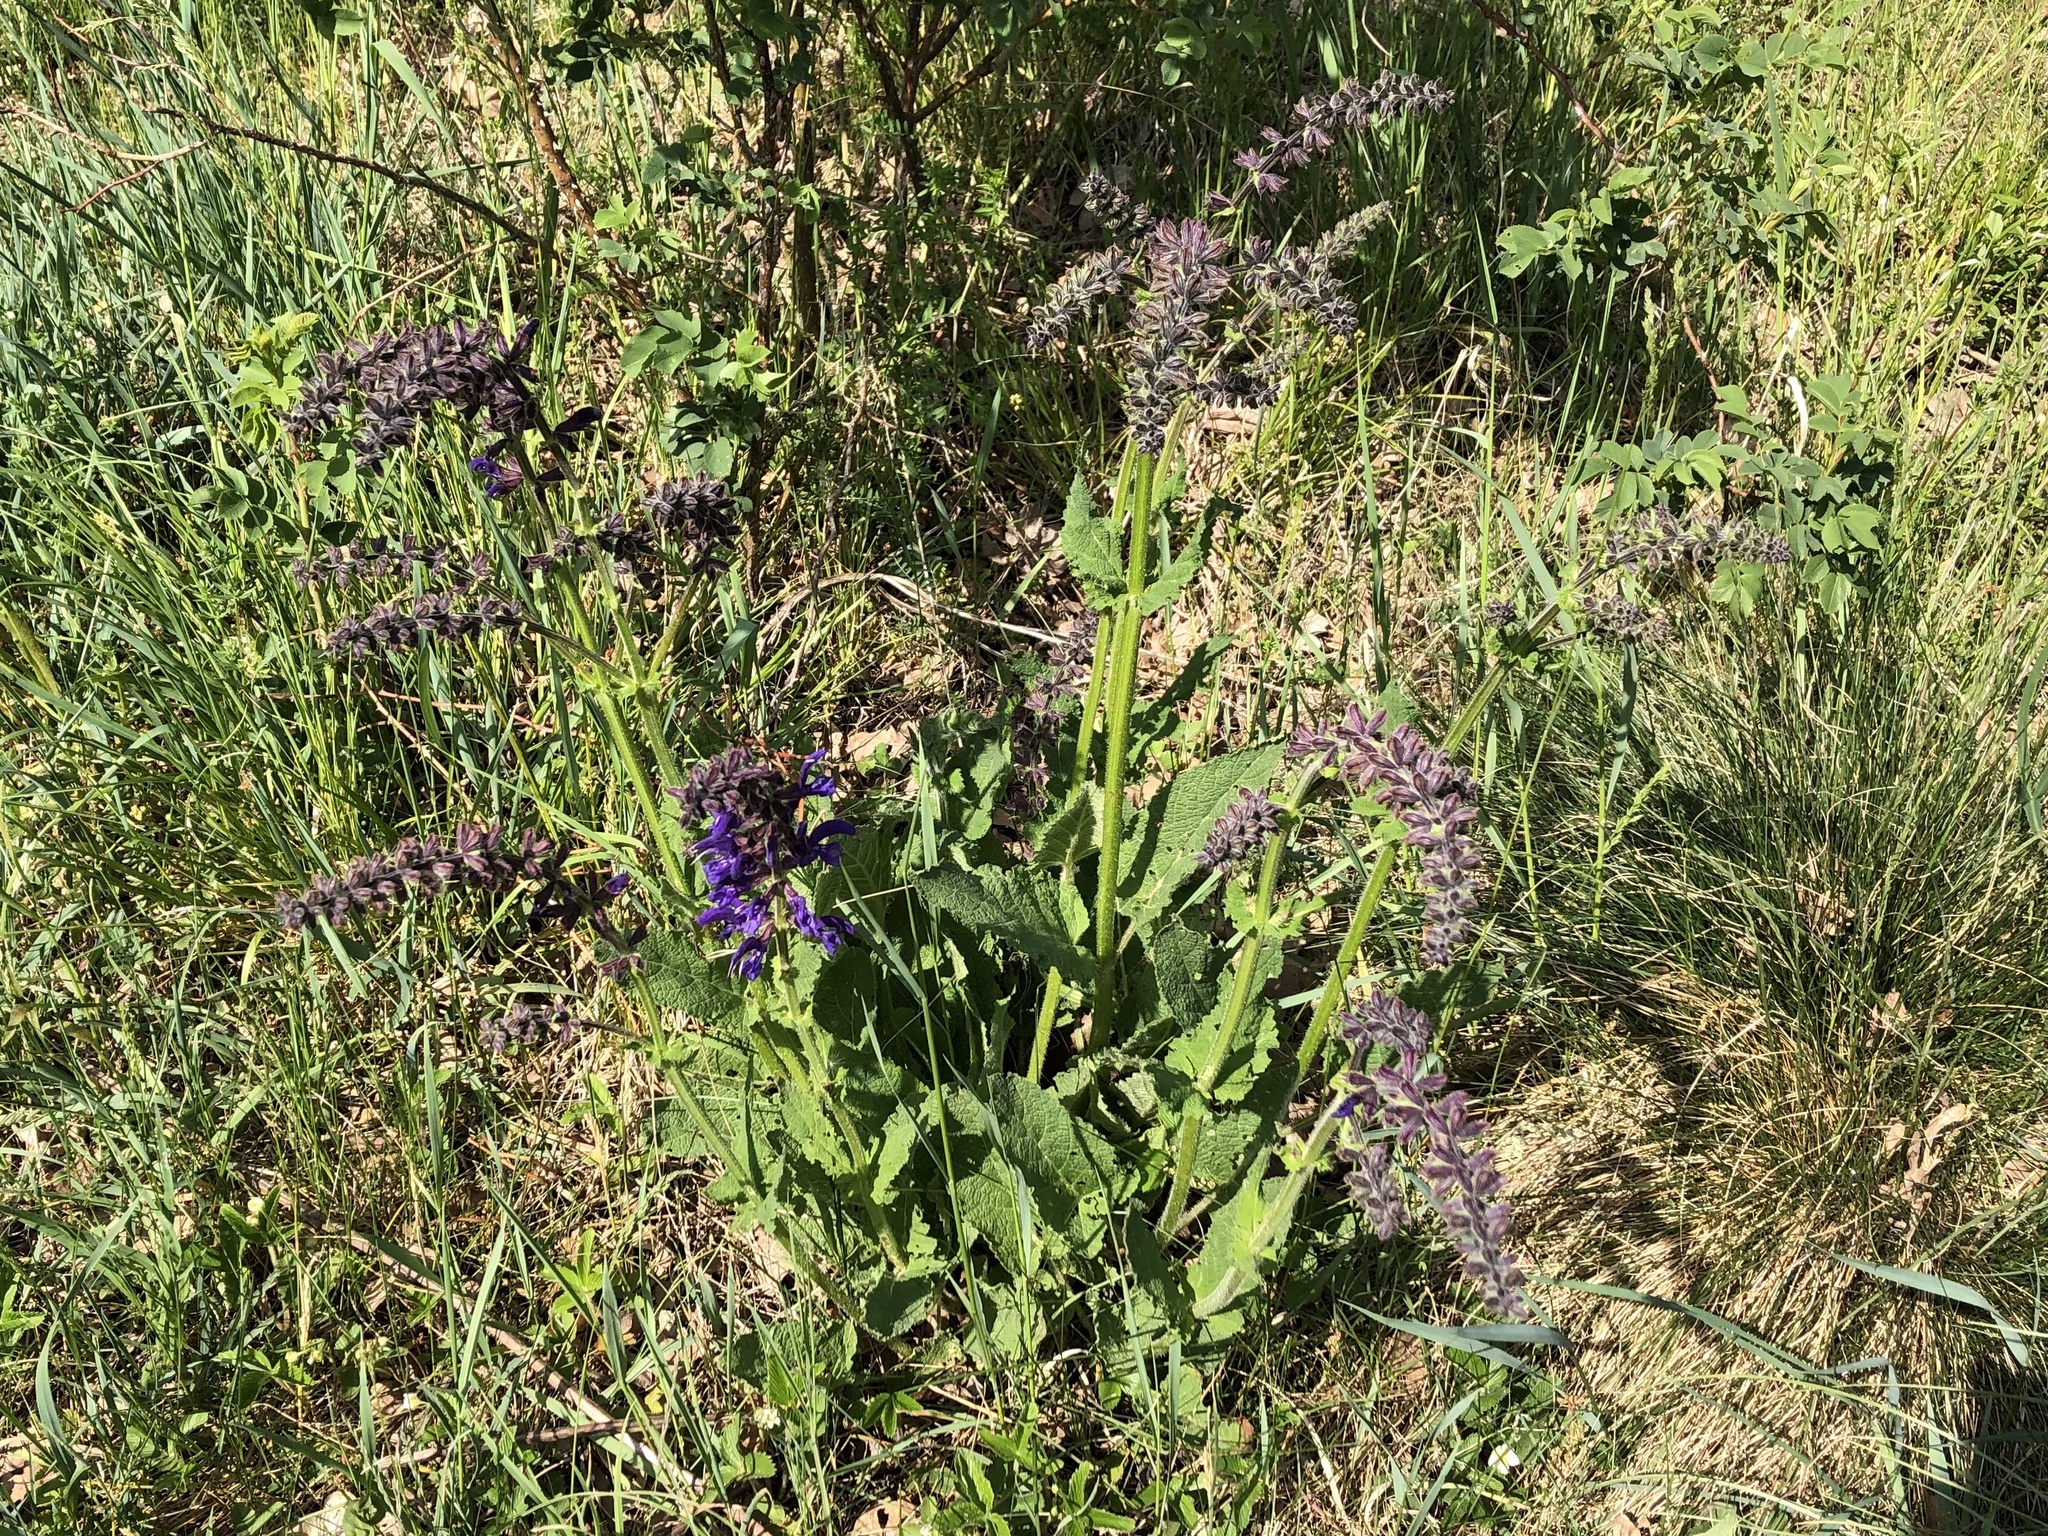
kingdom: Plantae
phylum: Tracheophyta
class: Magnoliopsida
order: Lamiales
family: Lamiaceae
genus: Salvia
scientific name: Salvia pratensis
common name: Meadow sage
